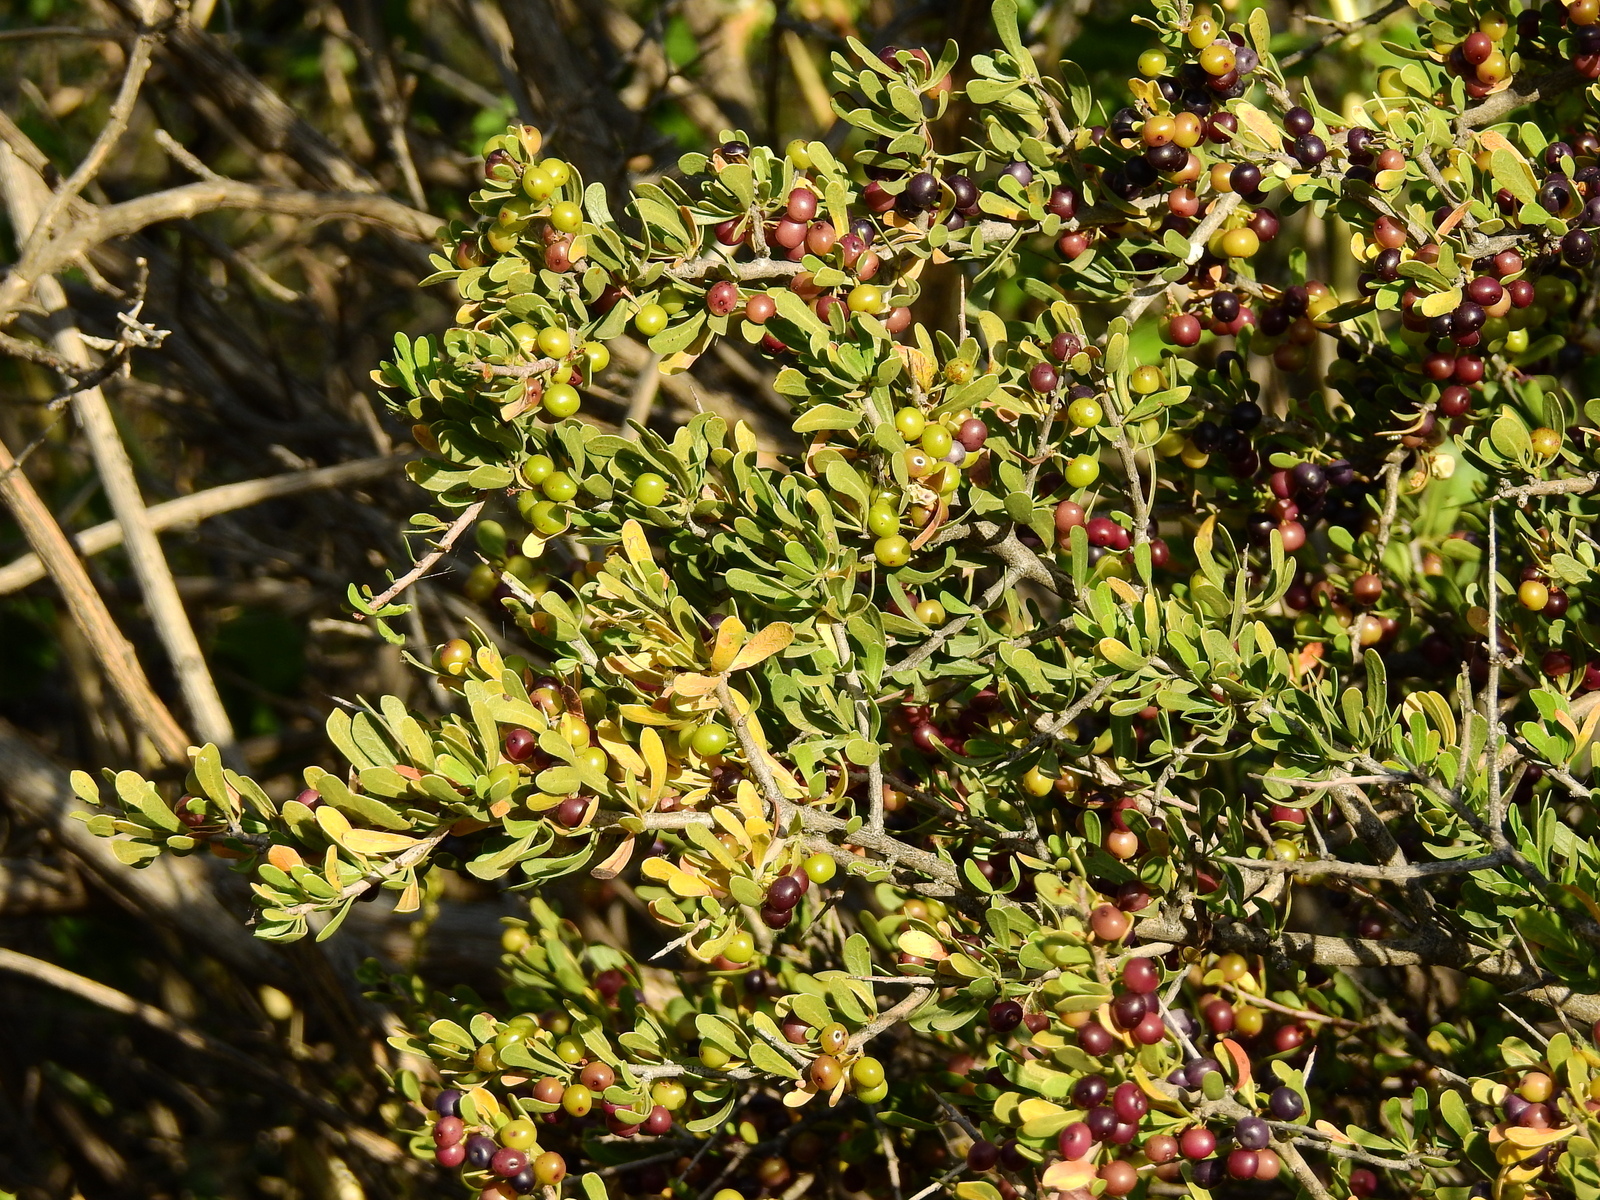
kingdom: Plantae
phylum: Tracheophyta
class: Magnoliopsida
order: Sapindales
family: Anacardiaceae
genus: Schinus
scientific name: Schinus polygama
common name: Hardee peppertree
